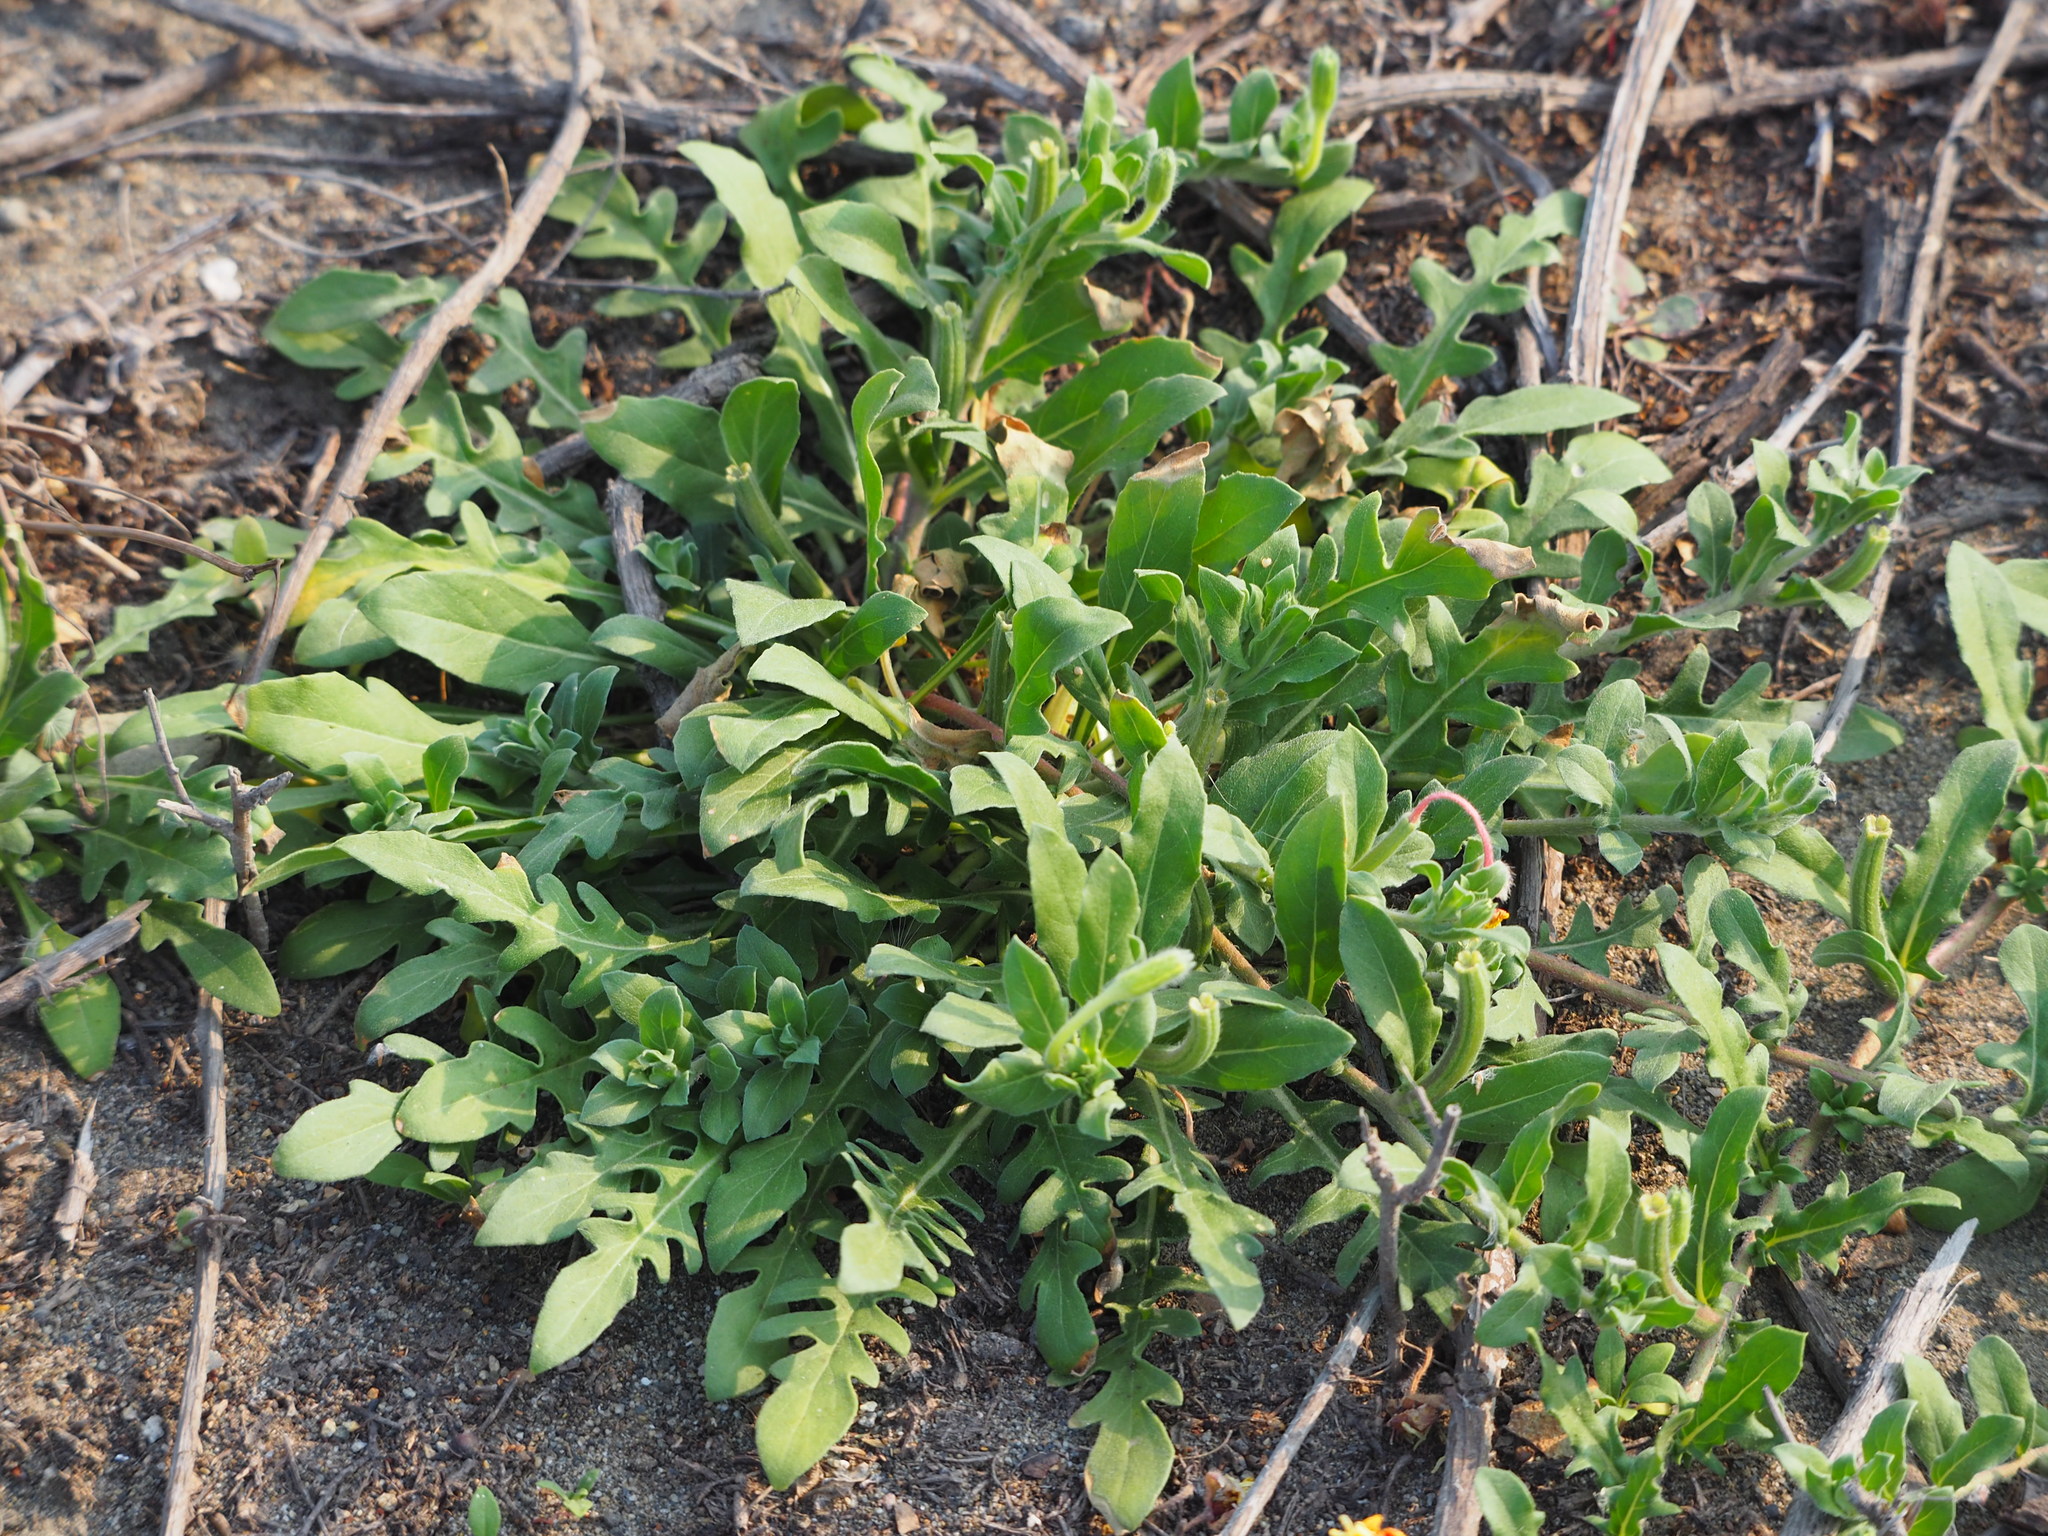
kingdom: Plantae
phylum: Tracheophyta
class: Magnoliopsida
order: Myrtales
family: Onagraceae
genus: Oenothera
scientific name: Oenothera laciniata
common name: Cut-leaved evening-primrose
